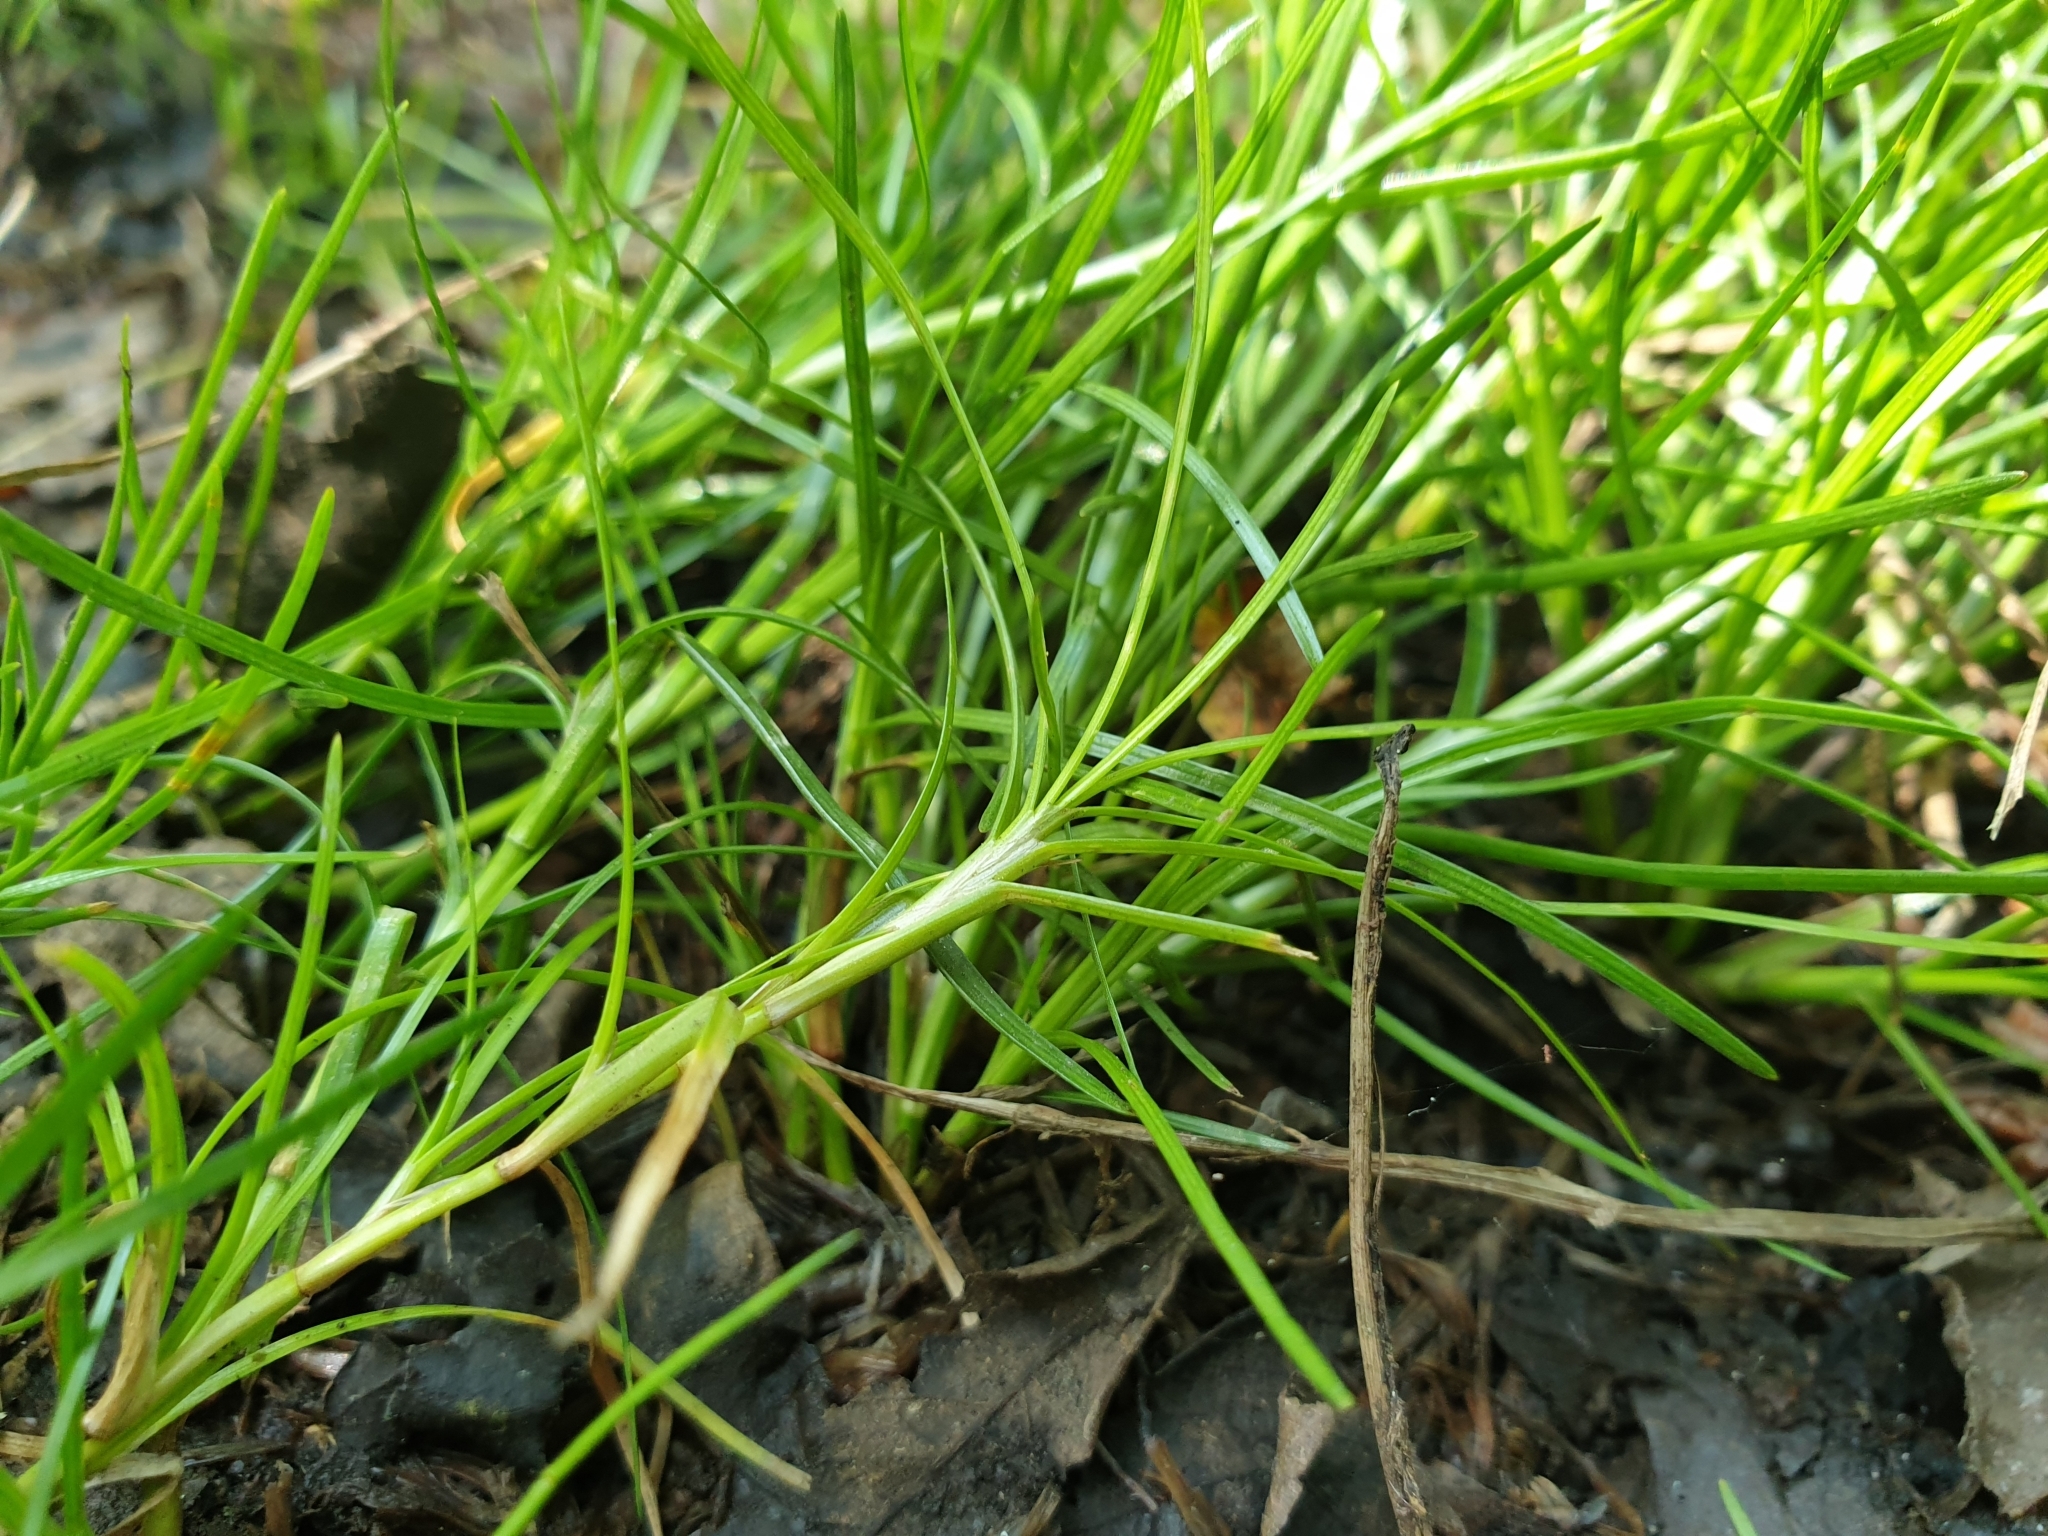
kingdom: Plantae
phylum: Tracheophyta
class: Liliopsida
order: Poales
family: Cyperaceae
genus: Isolepis
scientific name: Isolepis fluitans
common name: Floating club-rush
